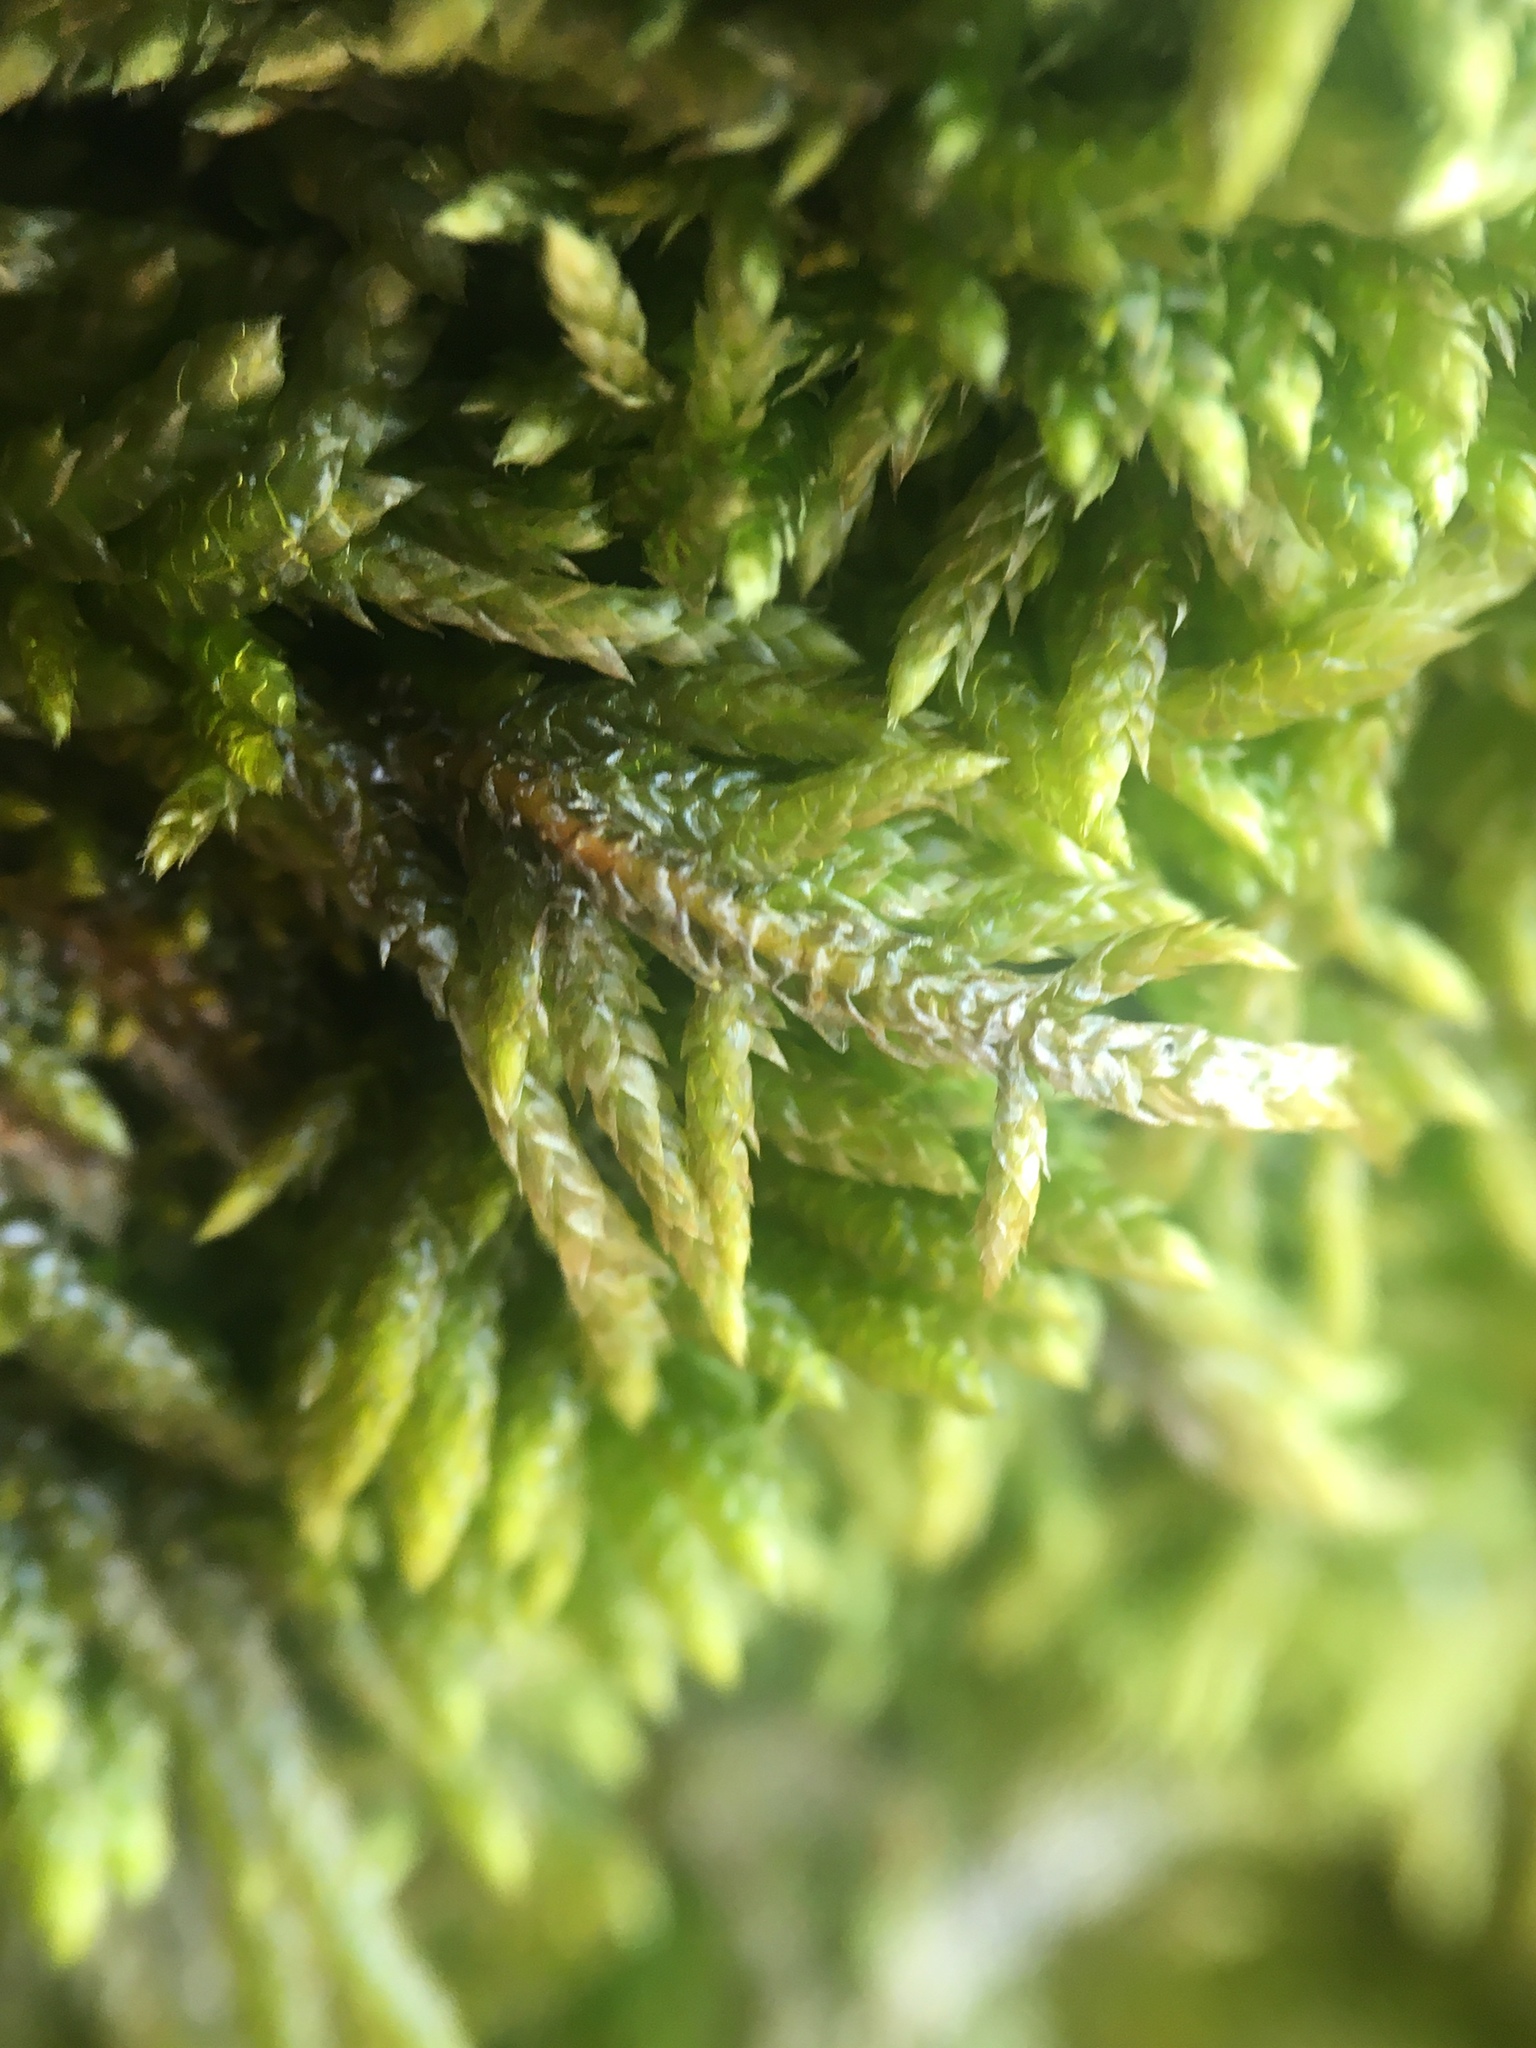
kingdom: Plantae
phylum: Bryophyta
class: Bryopsida
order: Hypnales
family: Brachytheciaceae
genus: Bryoandersonia
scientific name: Bryoandersonia illecebra
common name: Spoon-leaved moss
